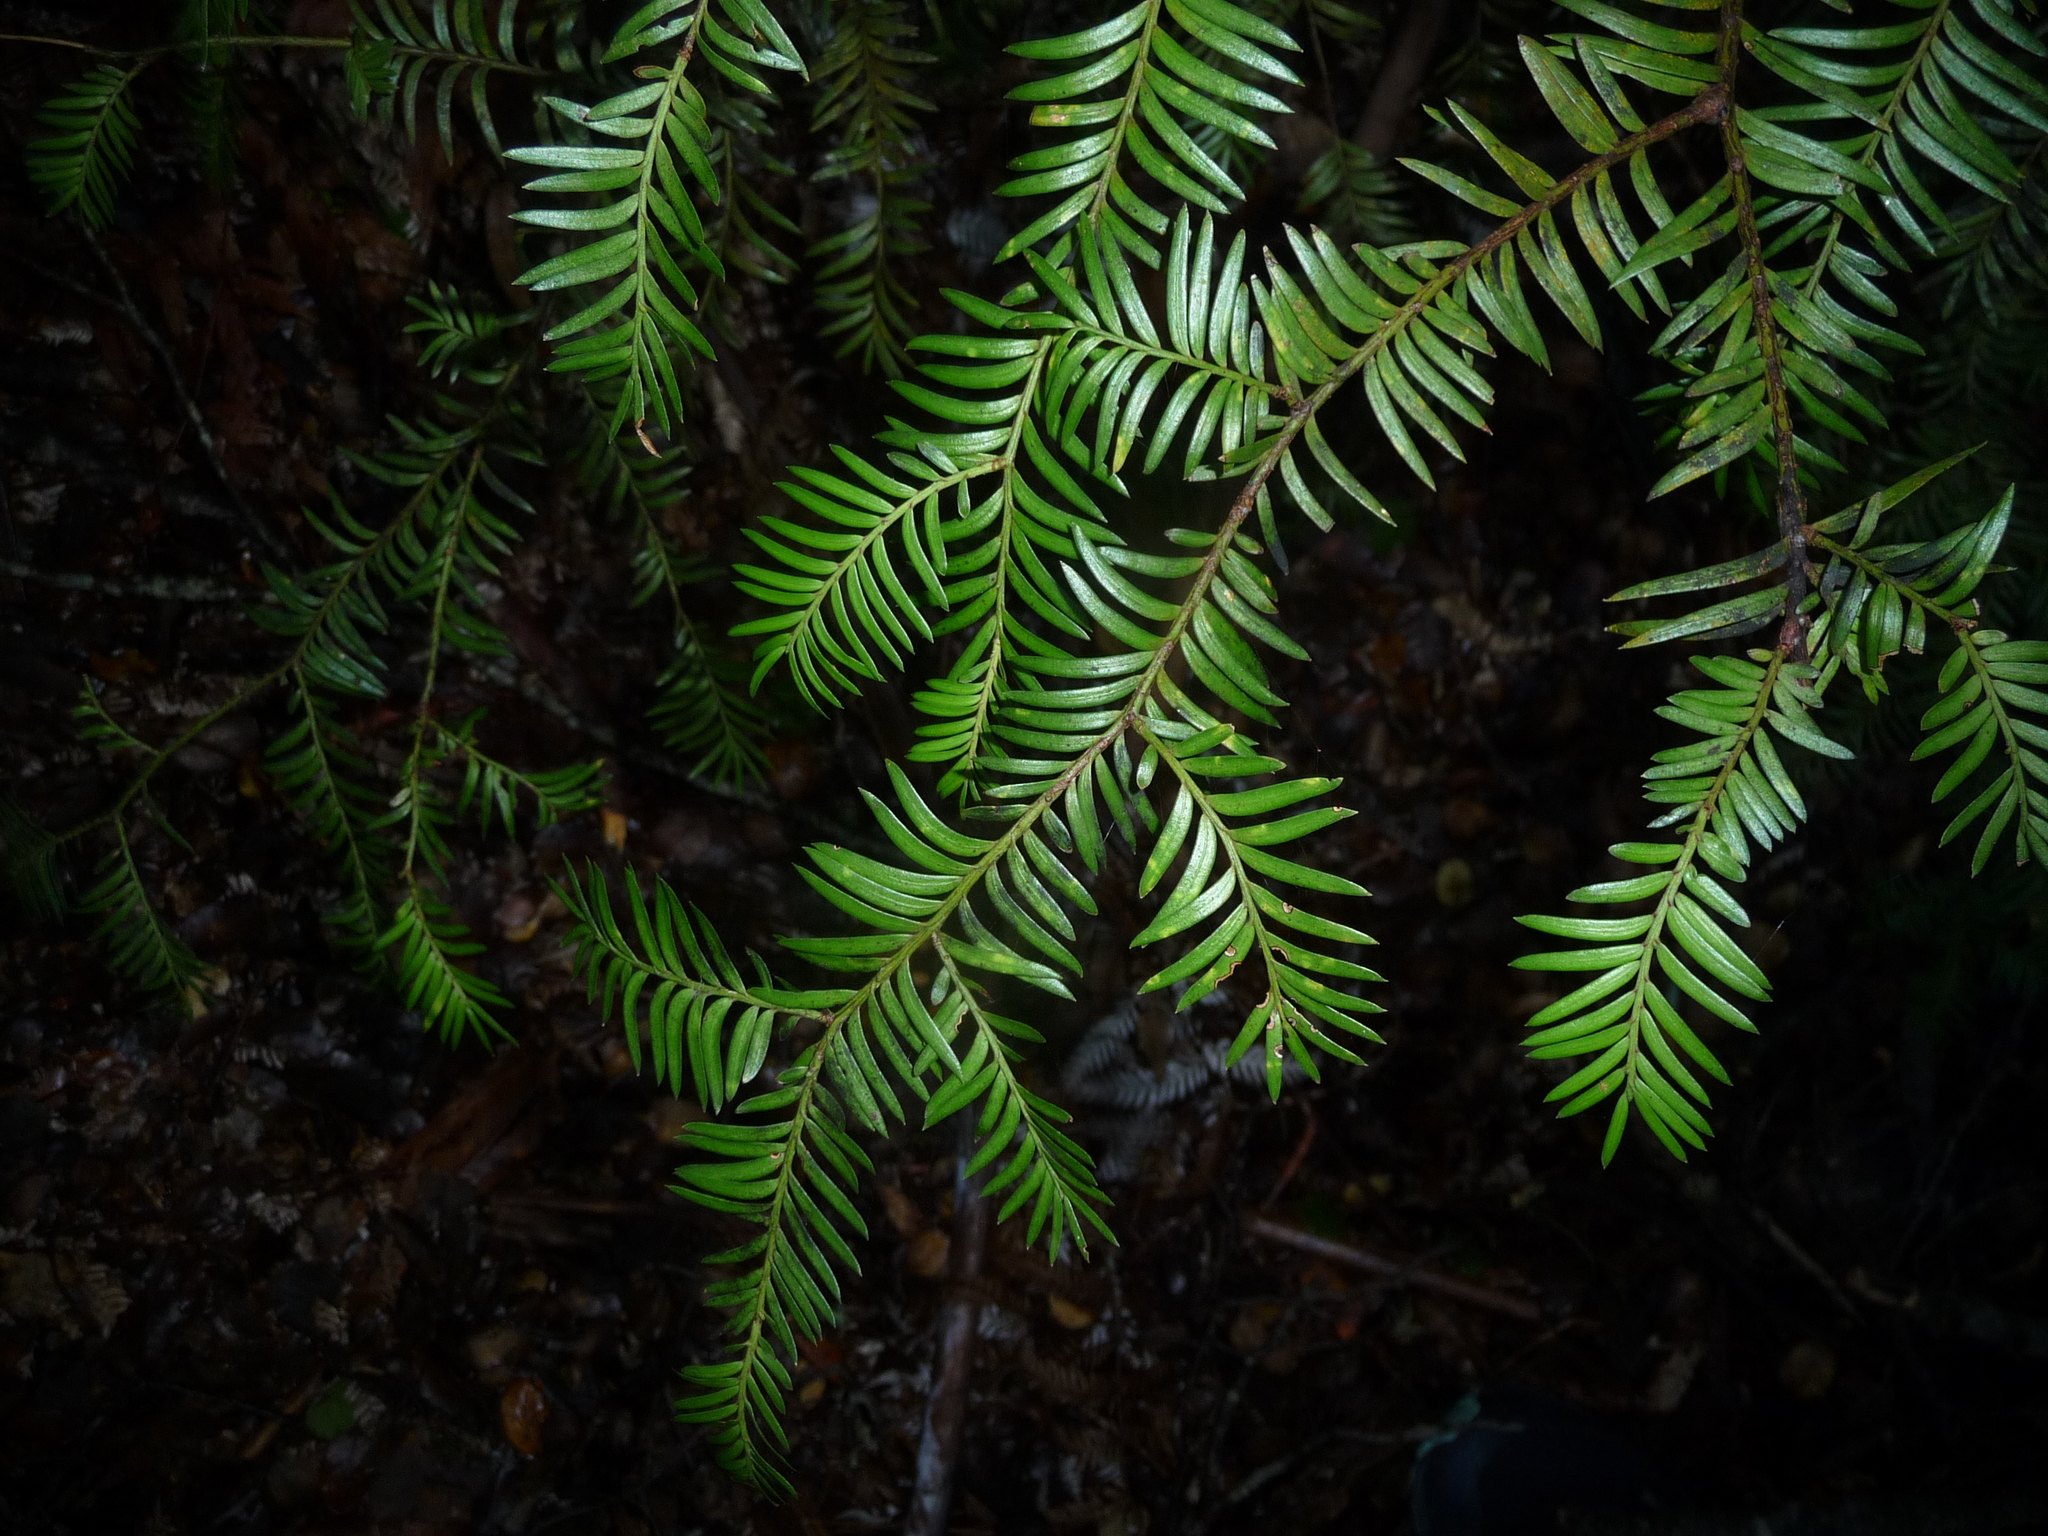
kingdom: Plantae
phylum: Tracheophyta
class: Pinopsida
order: Pinales
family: Podocarpaceae
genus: Prumnopitys
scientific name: Prumnopitys ferruginea
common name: Brown pine
